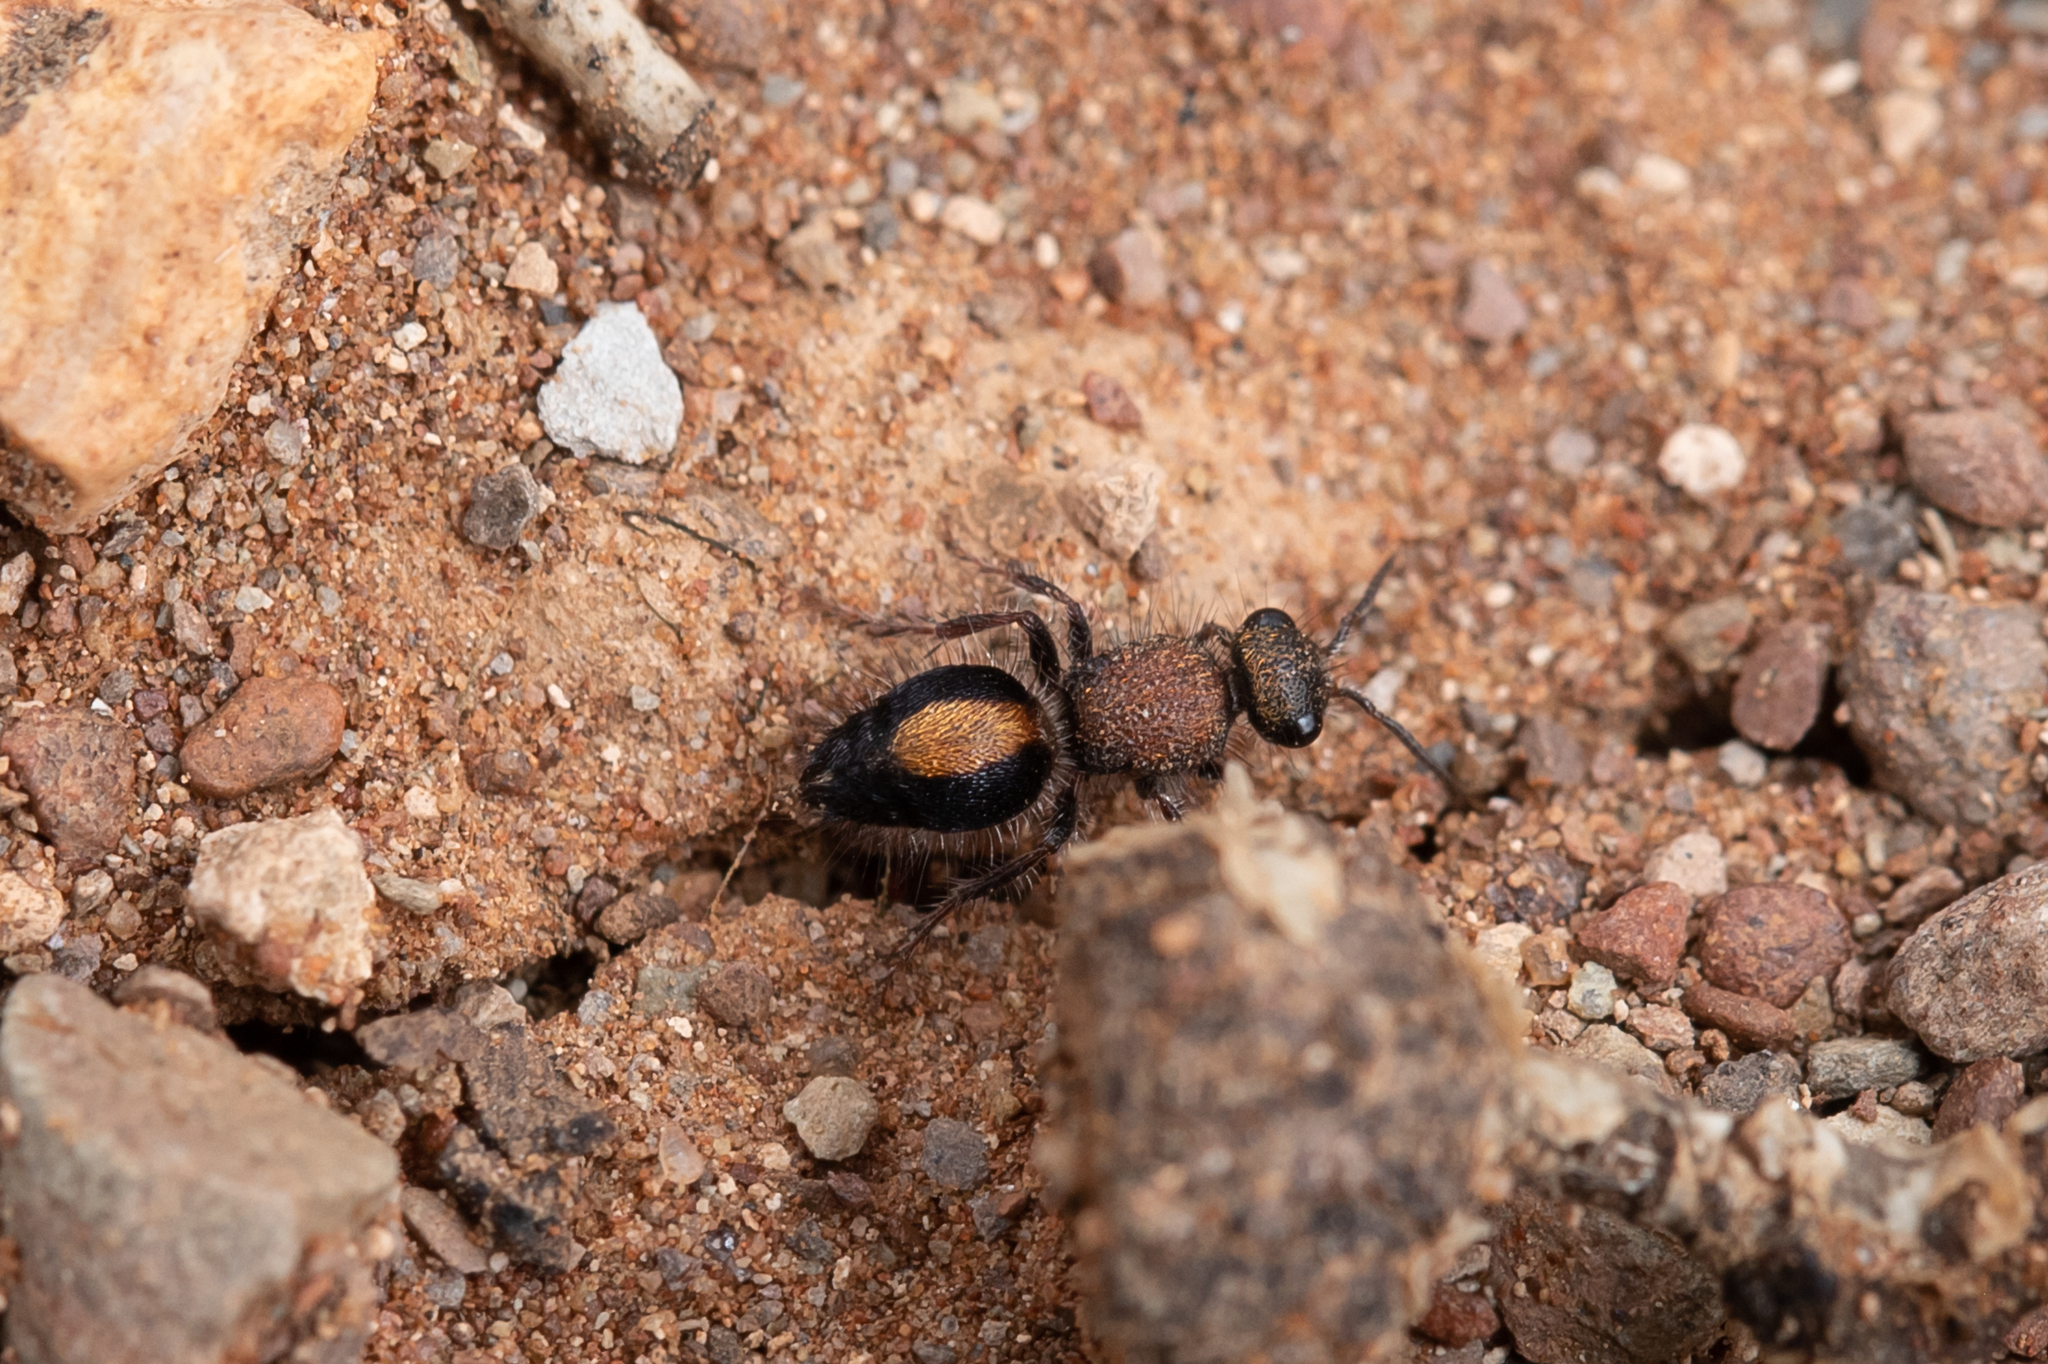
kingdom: Animalia
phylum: Arthropoda
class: Insecta
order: Hymenoptera
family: Mutillidae
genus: Ephutomorpha
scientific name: Ephutomorpha
